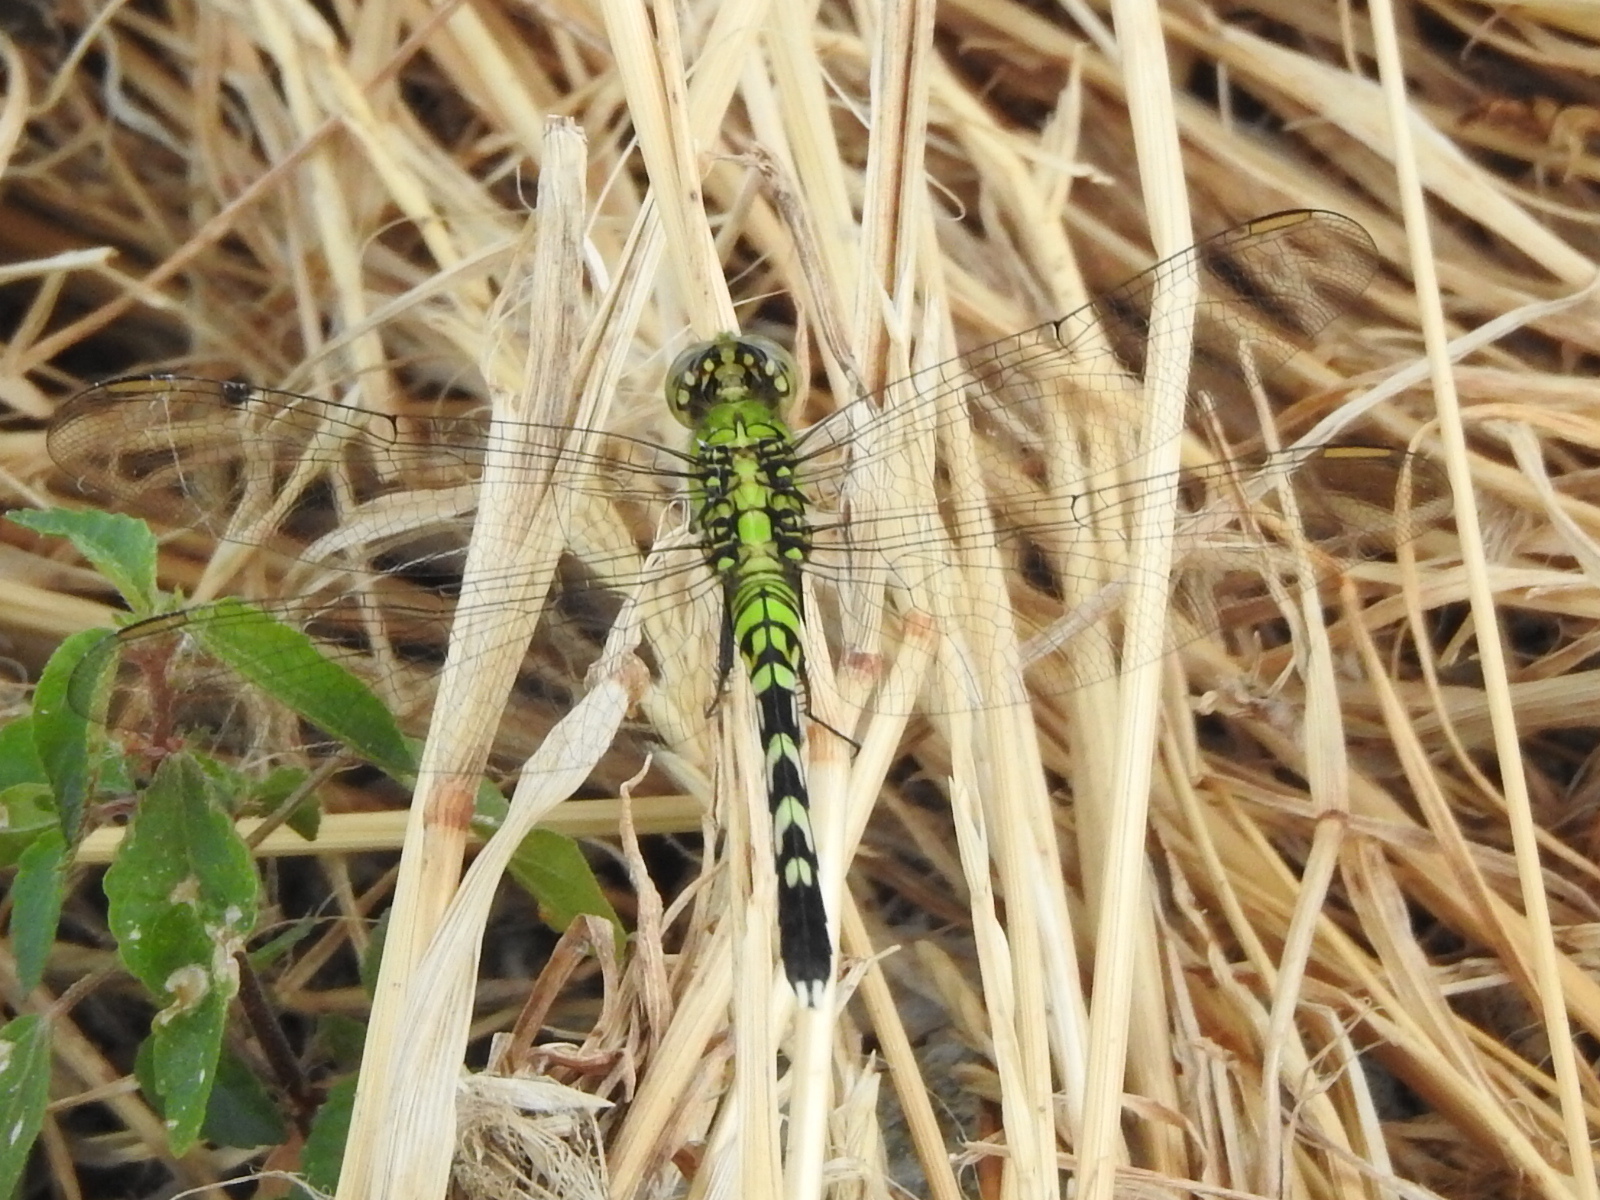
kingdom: Animalia
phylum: Arthropoda
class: Insecta
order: Odonata
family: Libellulidae
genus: Erythemis
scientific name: Erythemis simplicicollis
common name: Eastern pondhawk
